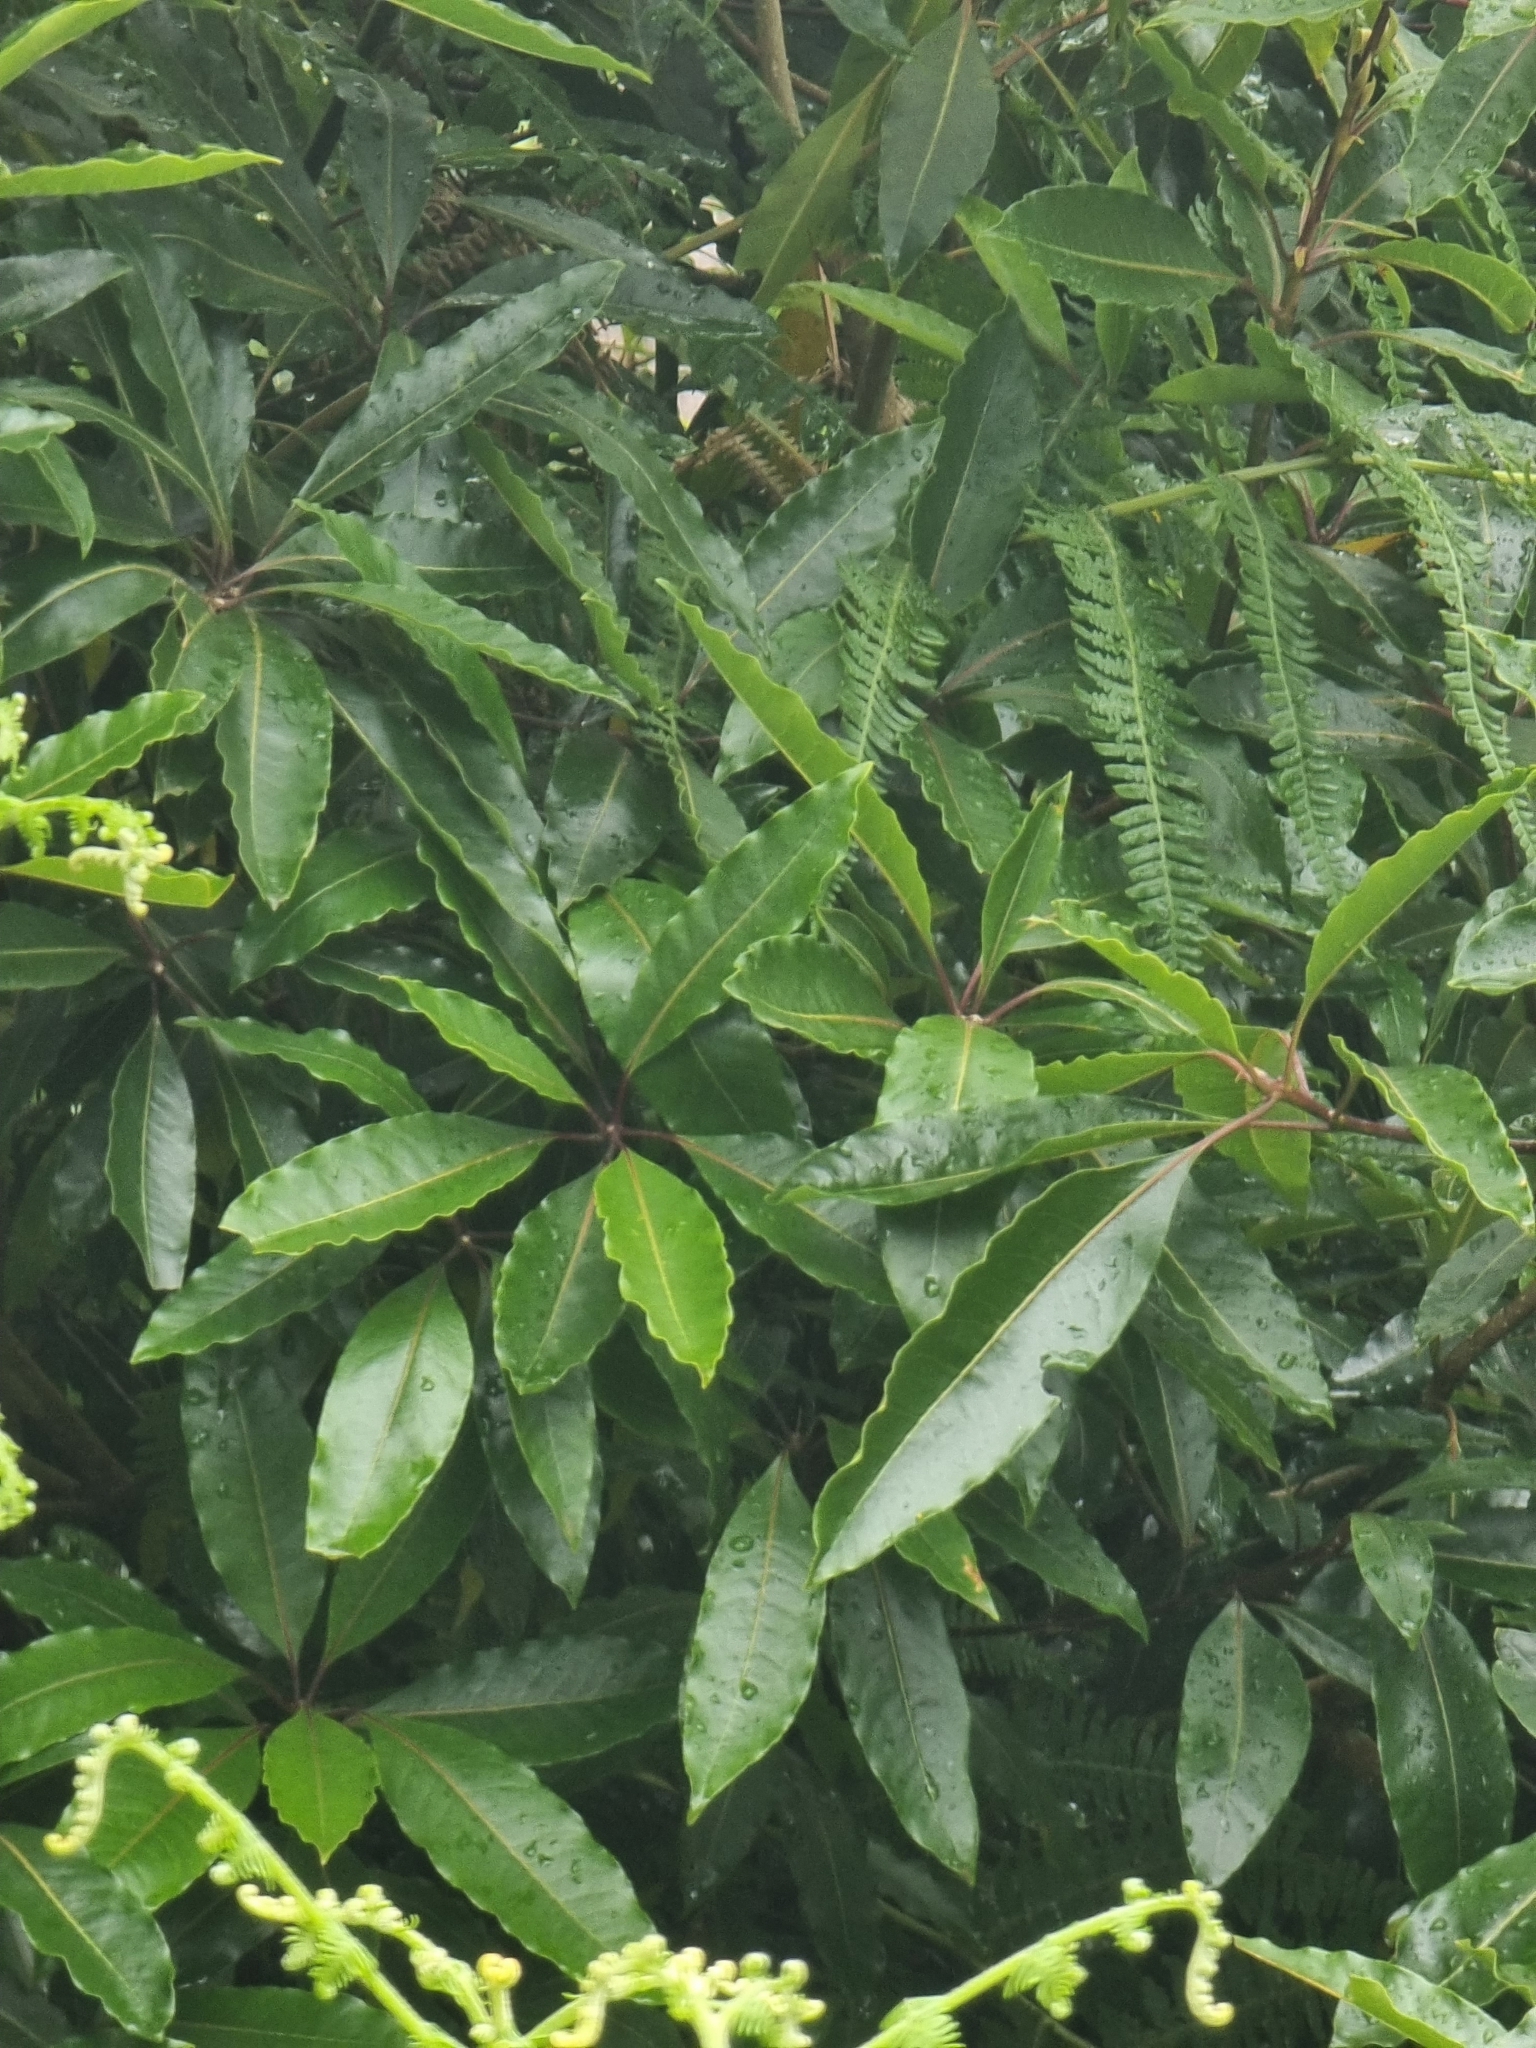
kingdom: Plantae
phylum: Tracheophyta
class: Magnoliopsida
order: Apiales
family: Pittosporaceae
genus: Pittosporum
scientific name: Pittosporum undulatum
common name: Australian cheesewood
